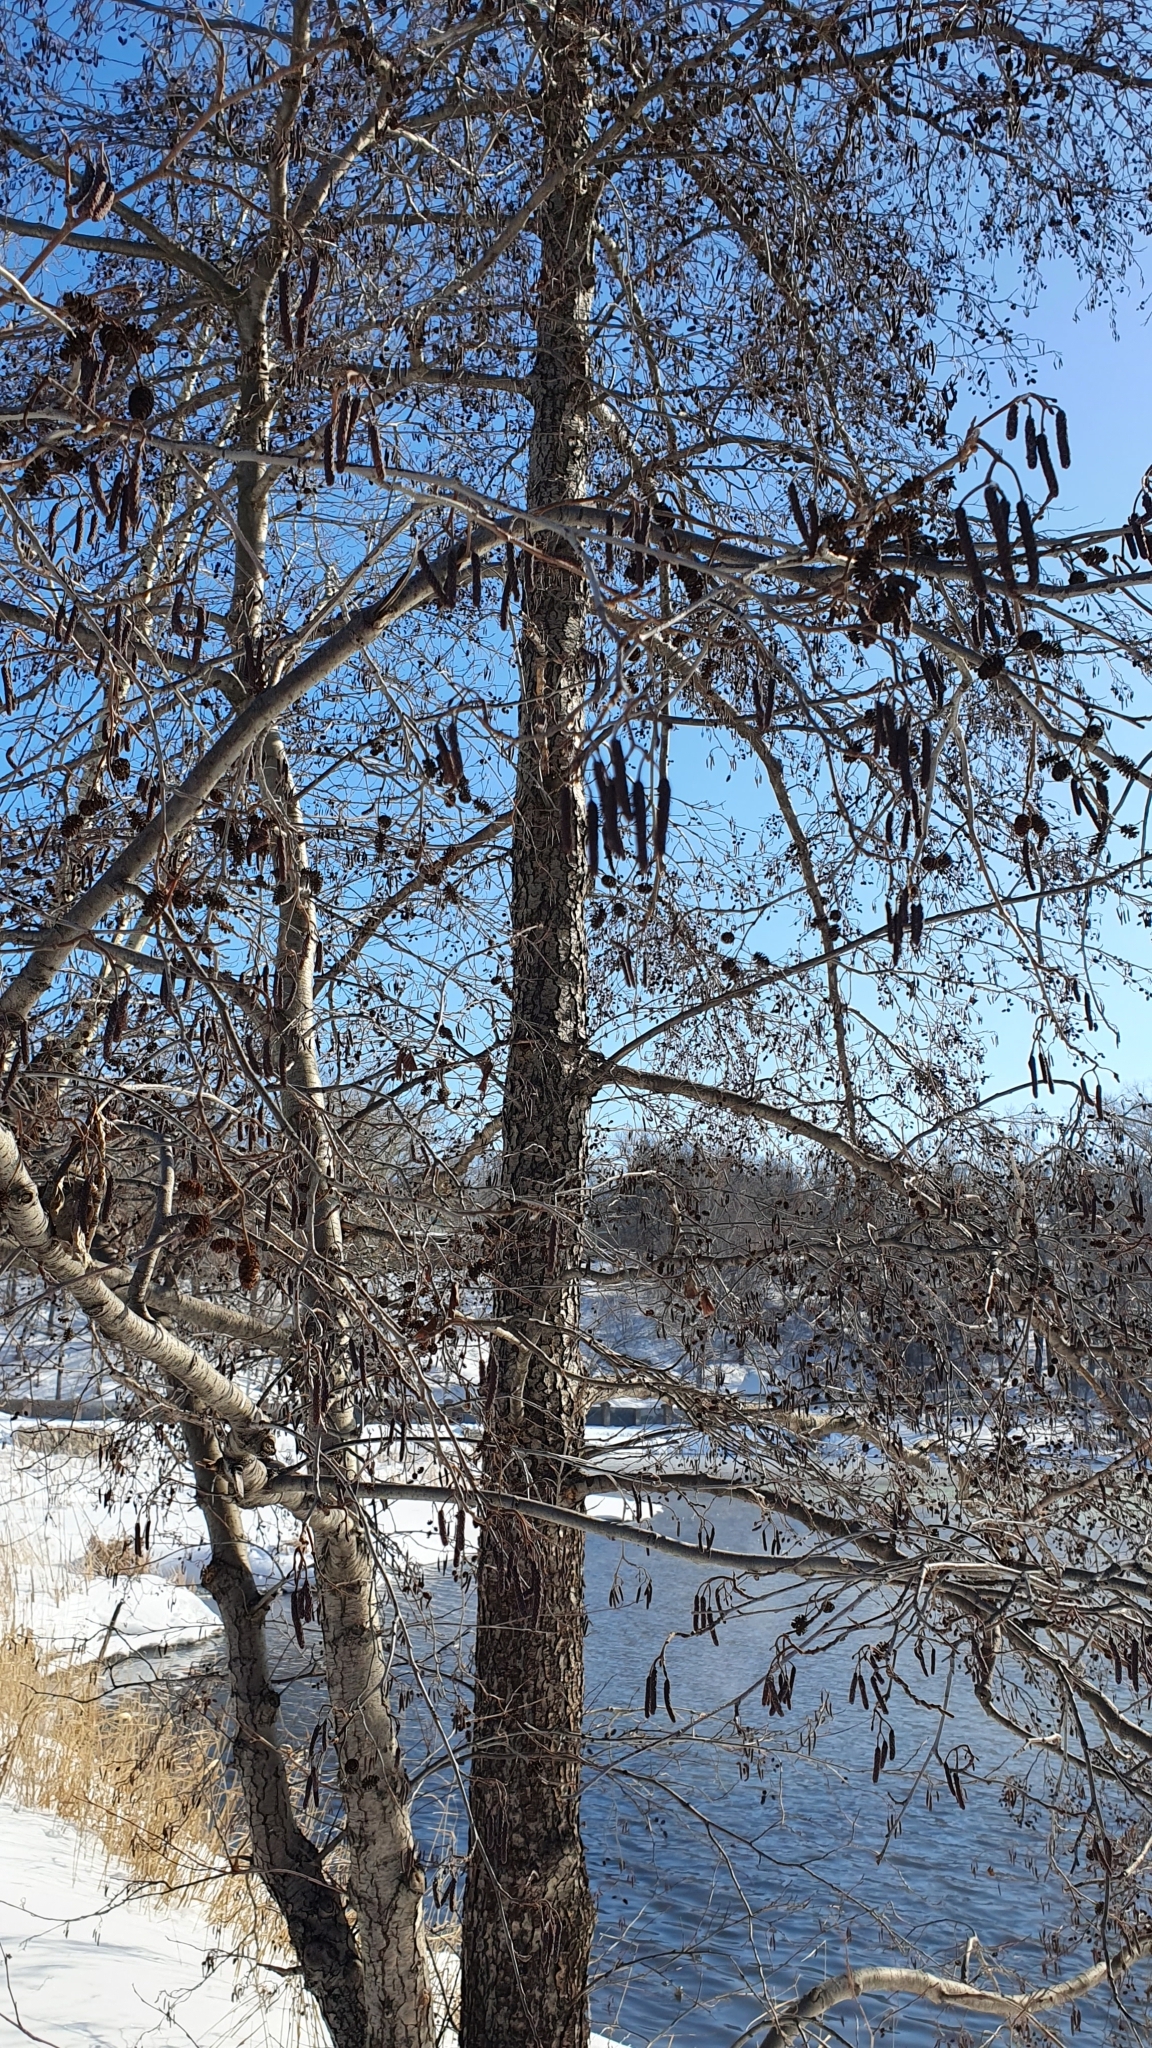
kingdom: Plantae
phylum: Tracheophyta
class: Magnoliopsida
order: Fagales
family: Betulaceae
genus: Alnus
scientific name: Alnus glutinosa
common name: Black alder
